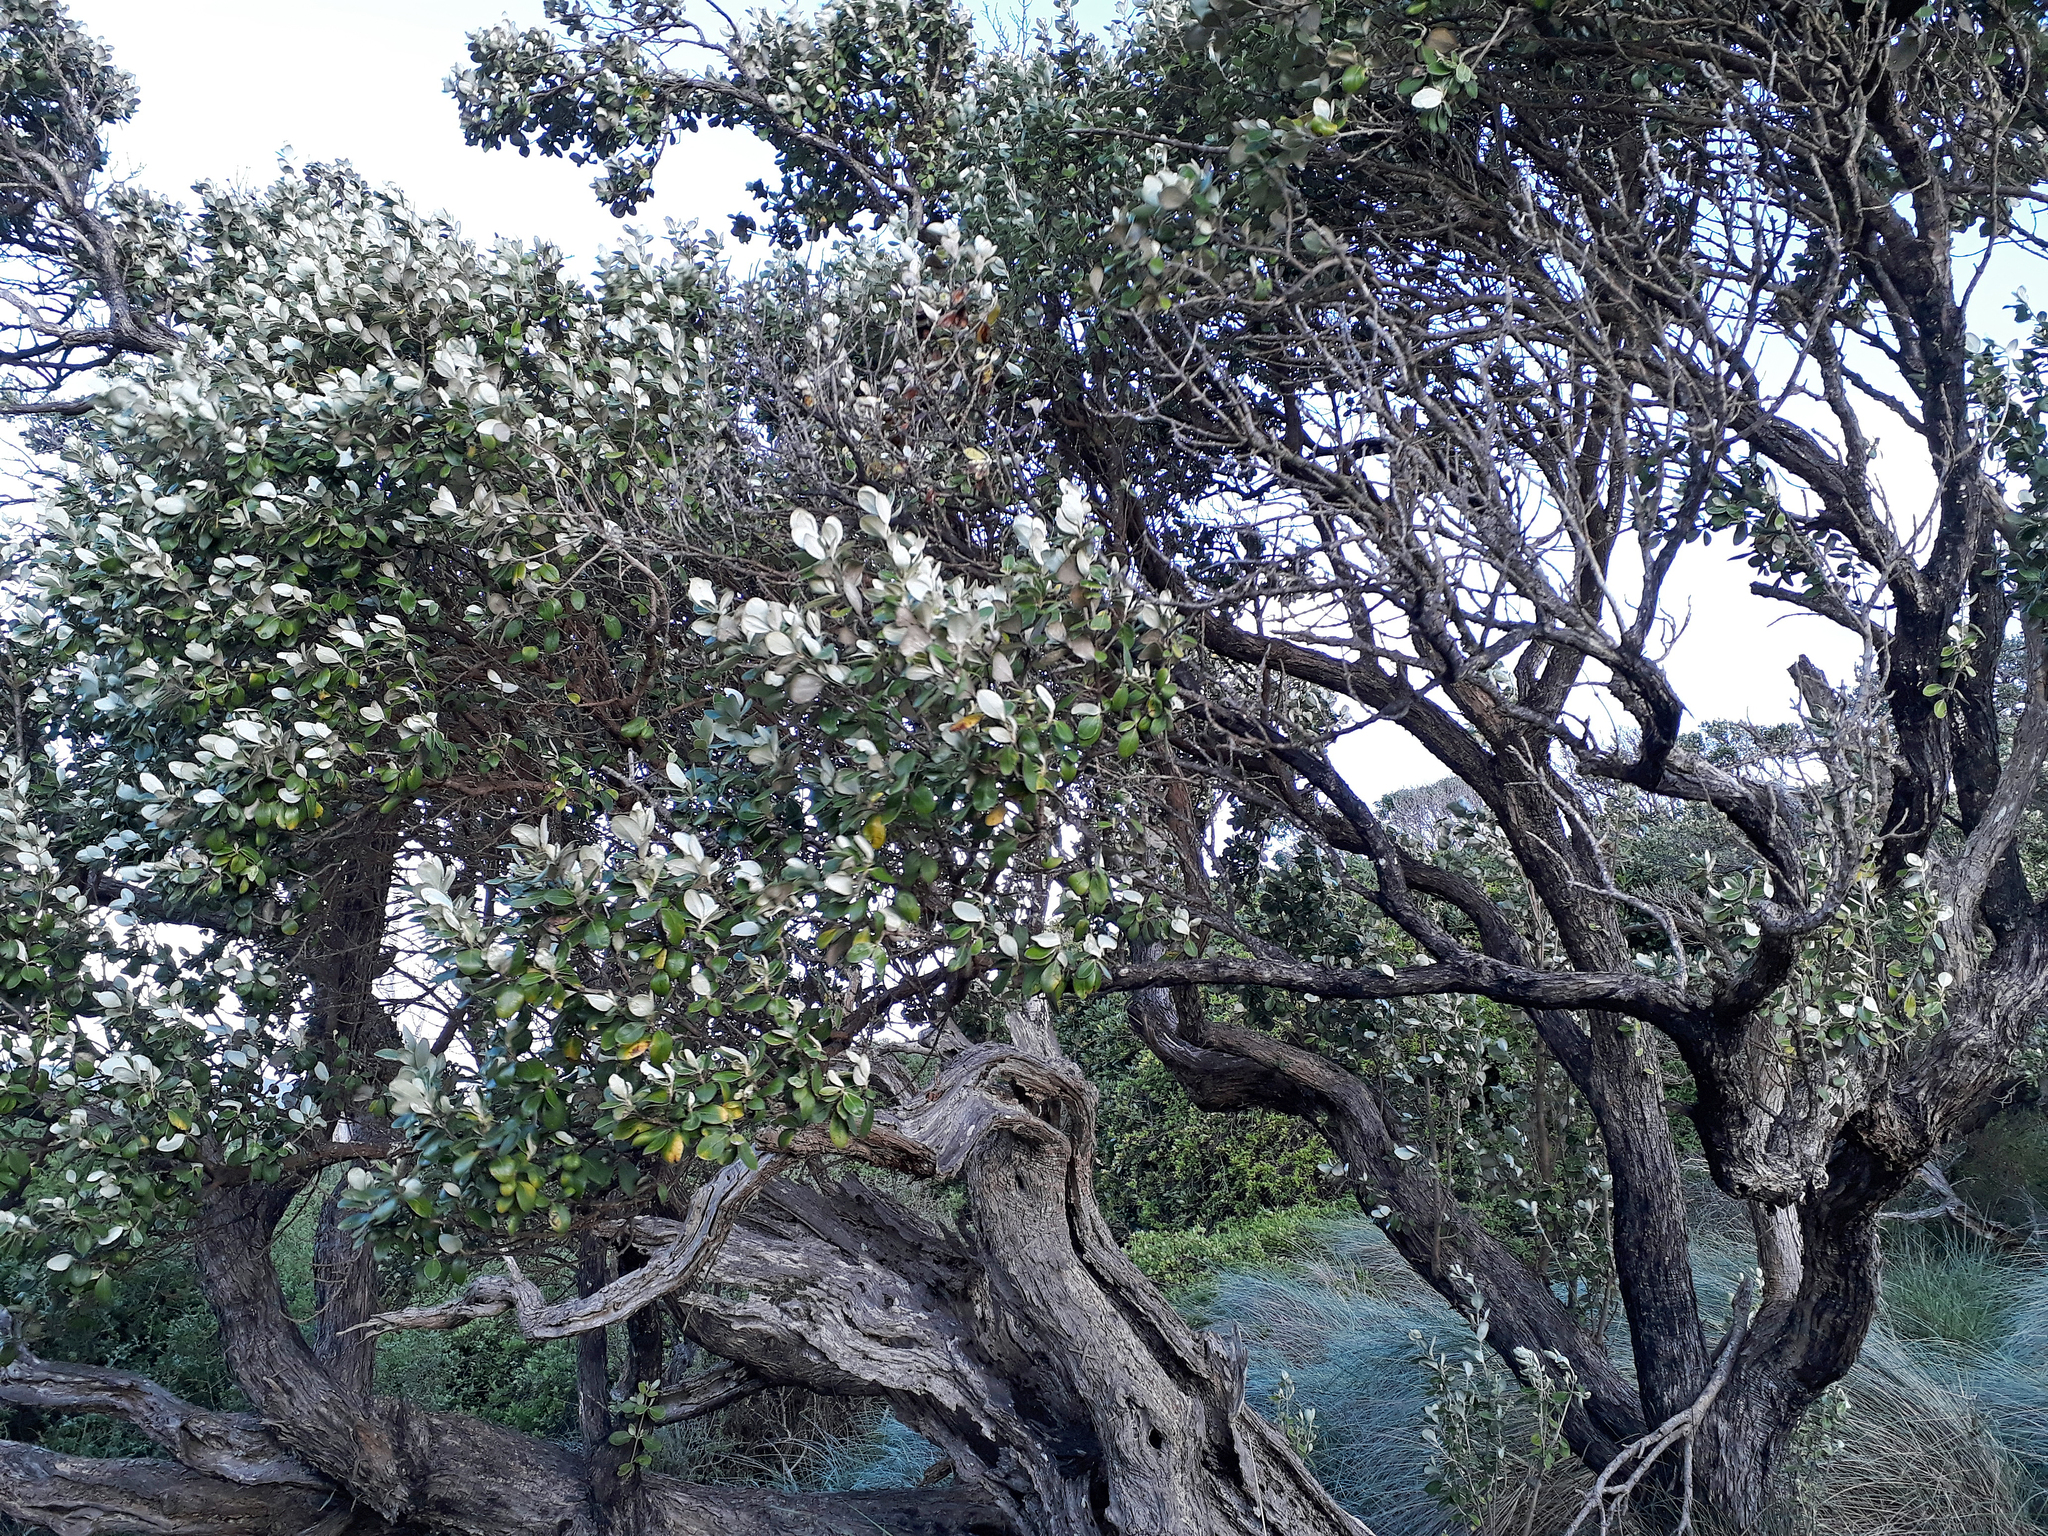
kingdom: Plantae
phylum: Tracheophyta
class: Magnoliopsida
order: Asterales
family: Asteraceae
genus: Olearia
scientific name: Olearia traversiorum
